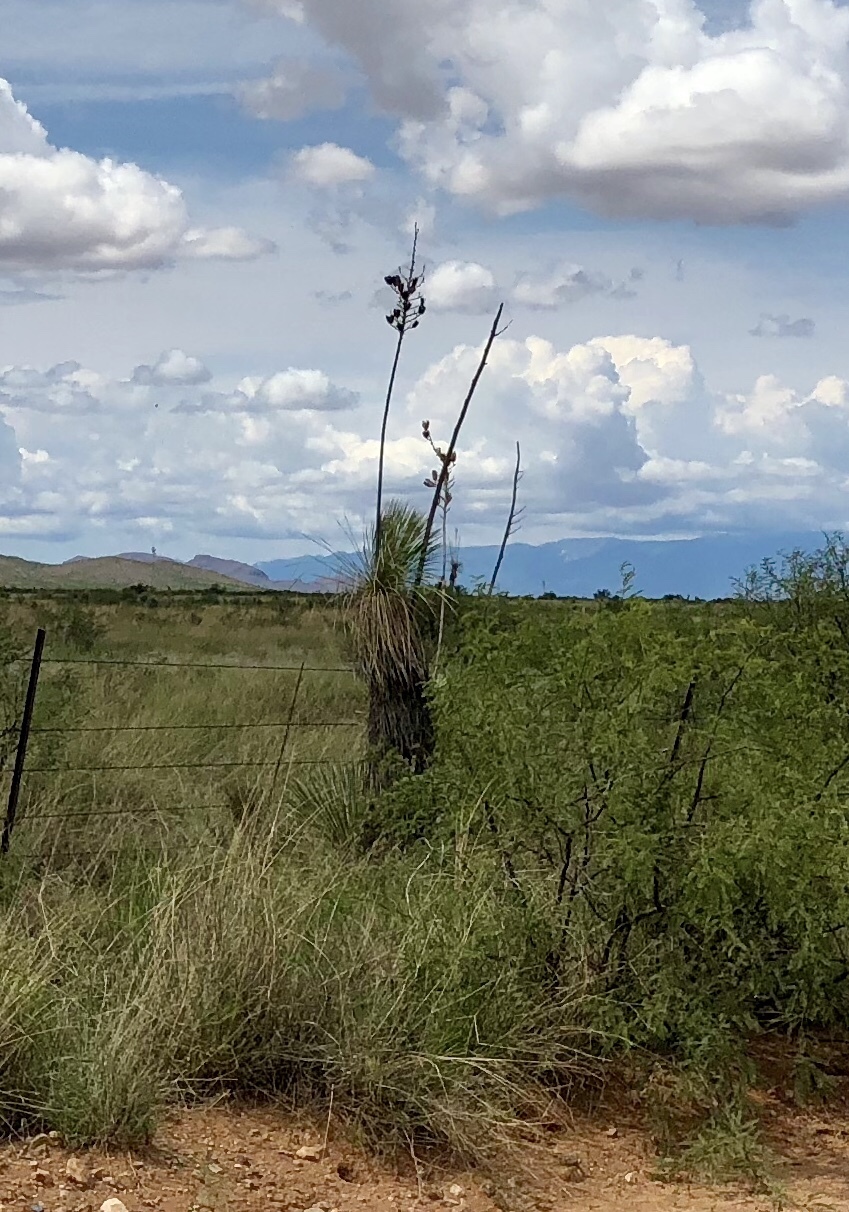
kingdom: Plantae
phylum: Tracheophyta
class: Liliopsida
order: Asparagales
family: Asparagaceae
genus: Yucca
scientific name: Yucca elata
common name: Palmella
